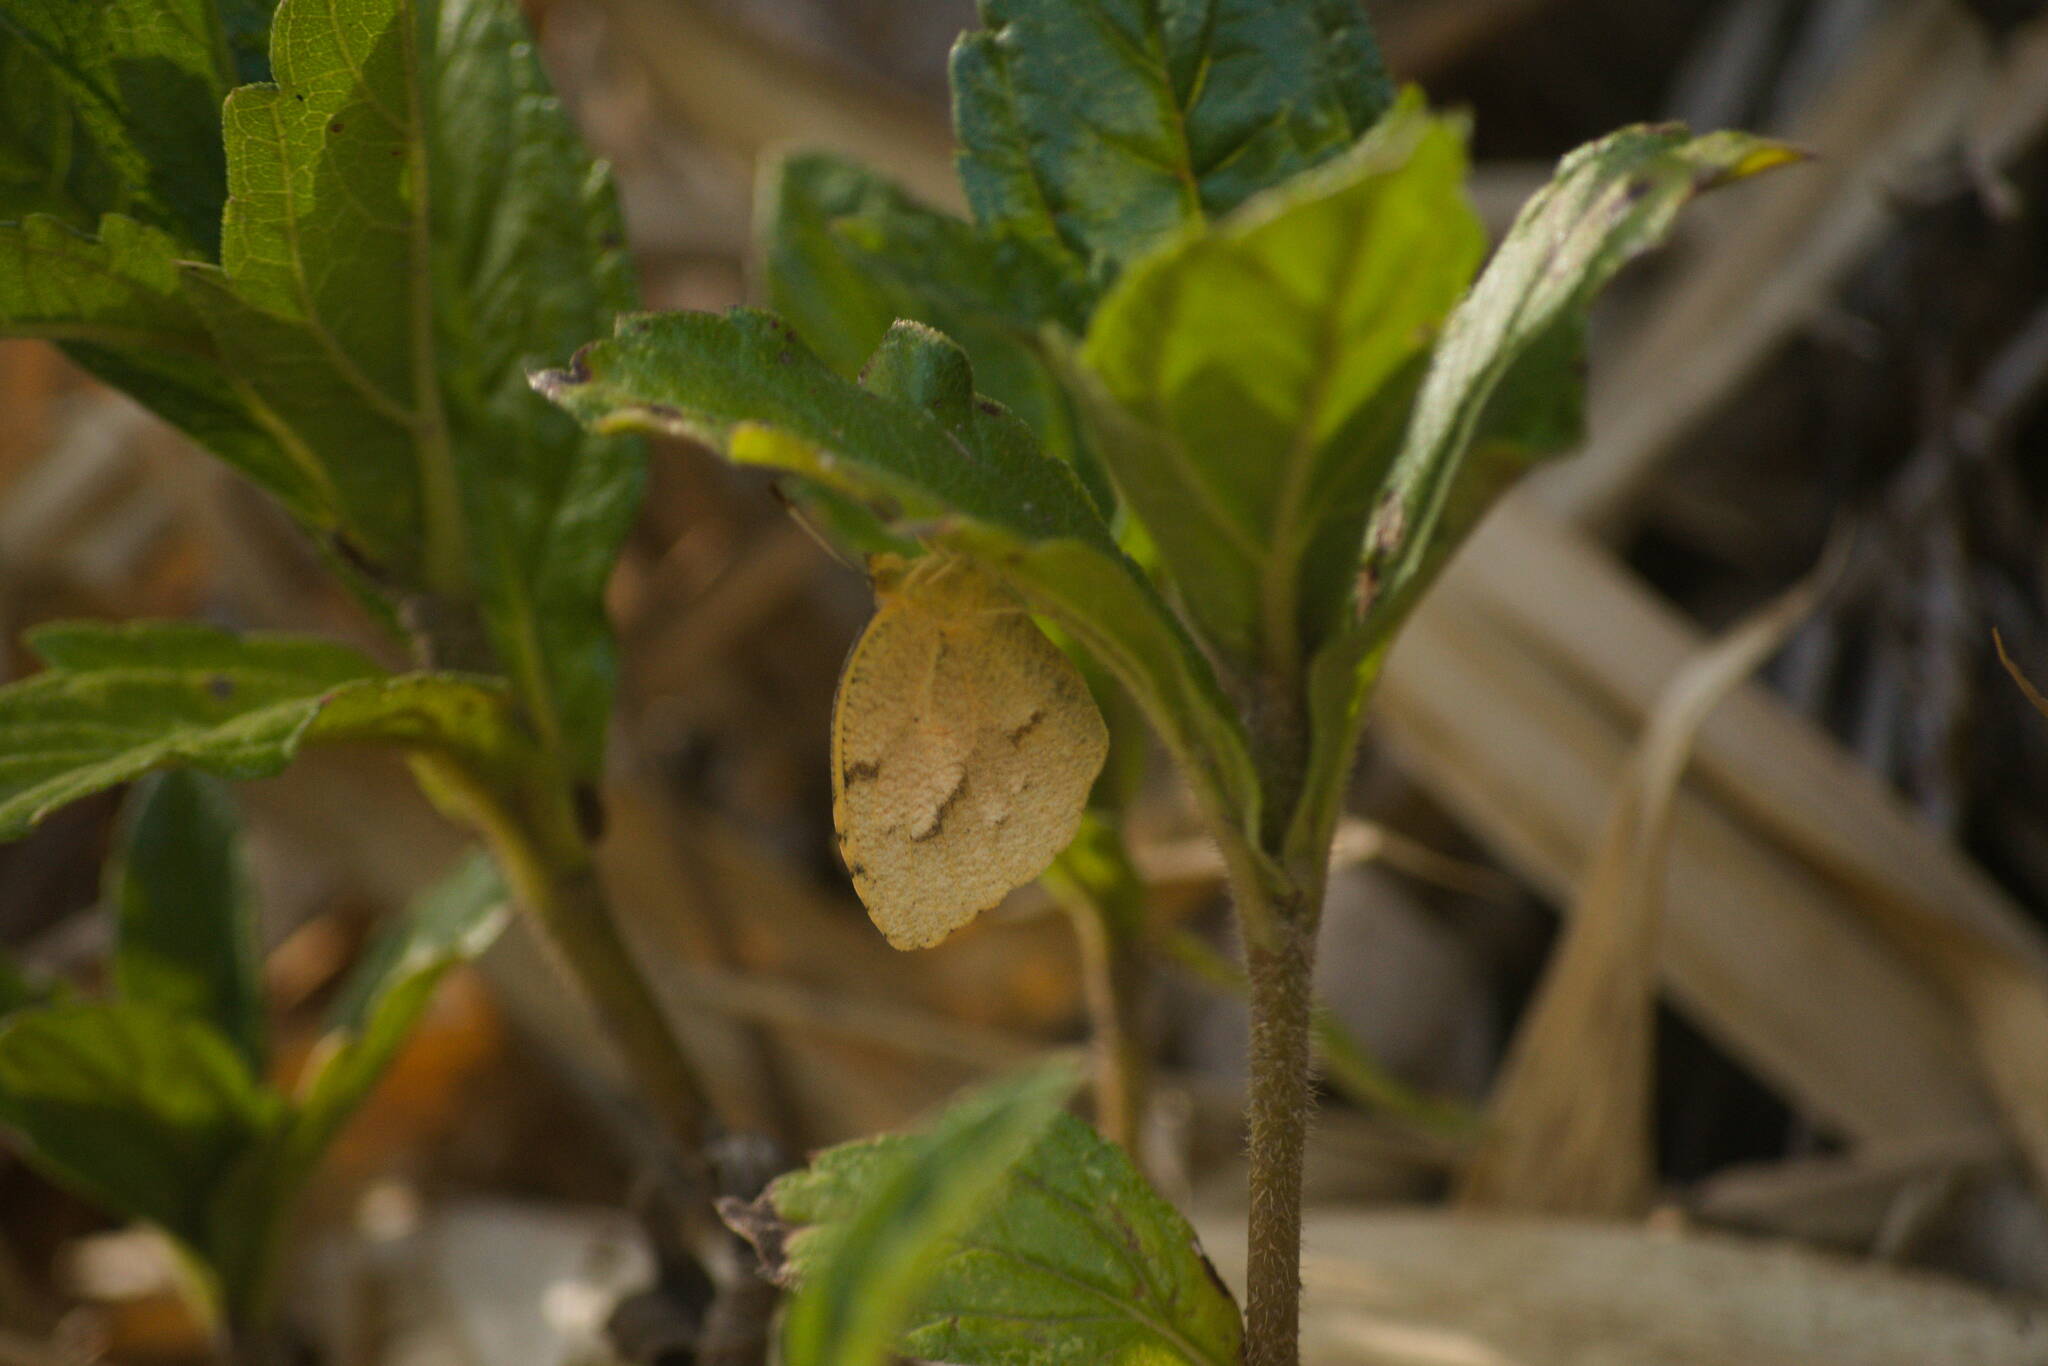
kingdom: Animalia
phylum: Arthropoda
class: Insecta
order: Lepidoptera
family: Pieridae
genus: Abaeis
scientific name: Abaeis nicippe
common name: Sleepy orange
